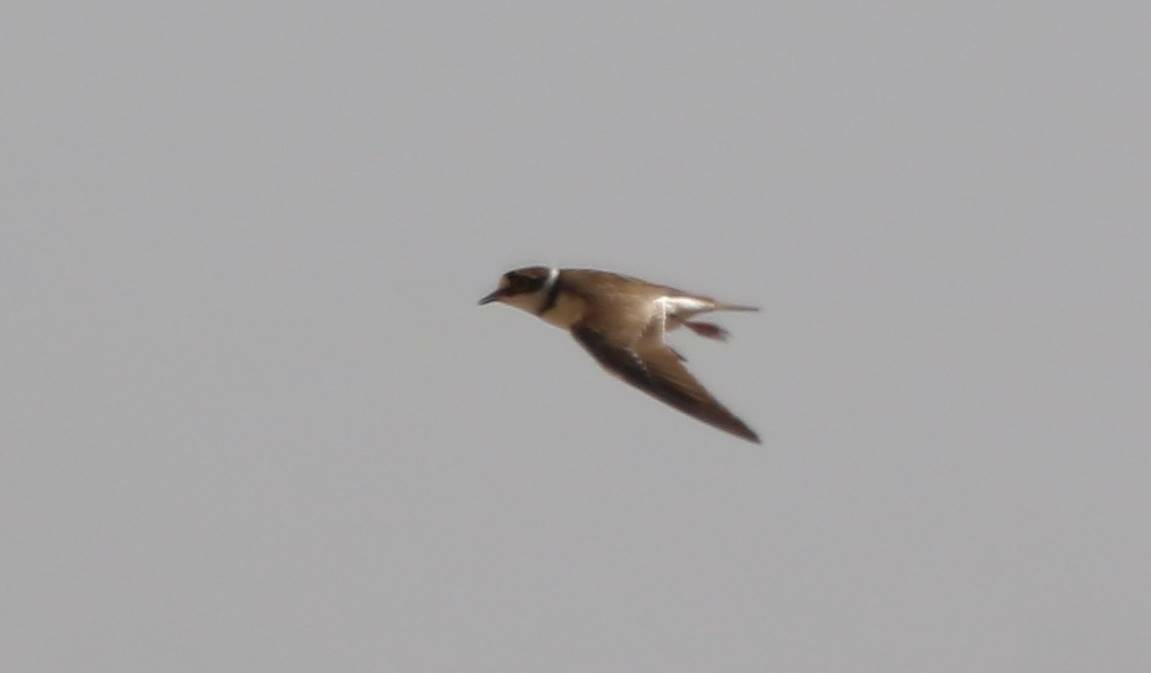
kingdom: Animalia
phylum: Chordata
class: Aves
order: Charadriiformes
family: Charadriidae
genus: Charadrius
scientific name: Charadrius dubius
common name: Little ringed plover
